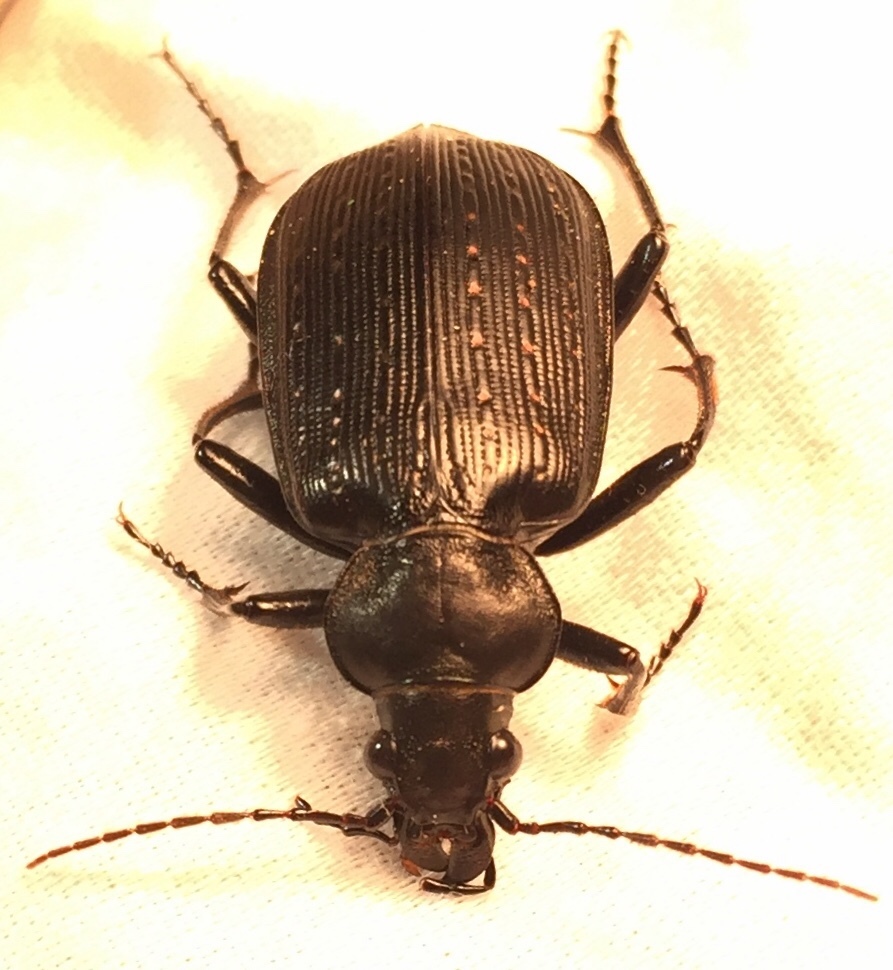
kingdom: Animalia
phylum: Arthropoda
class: Insecta
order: Coleoptera
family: Carabidae
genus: Calosoma
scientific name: Calosoma sayi
